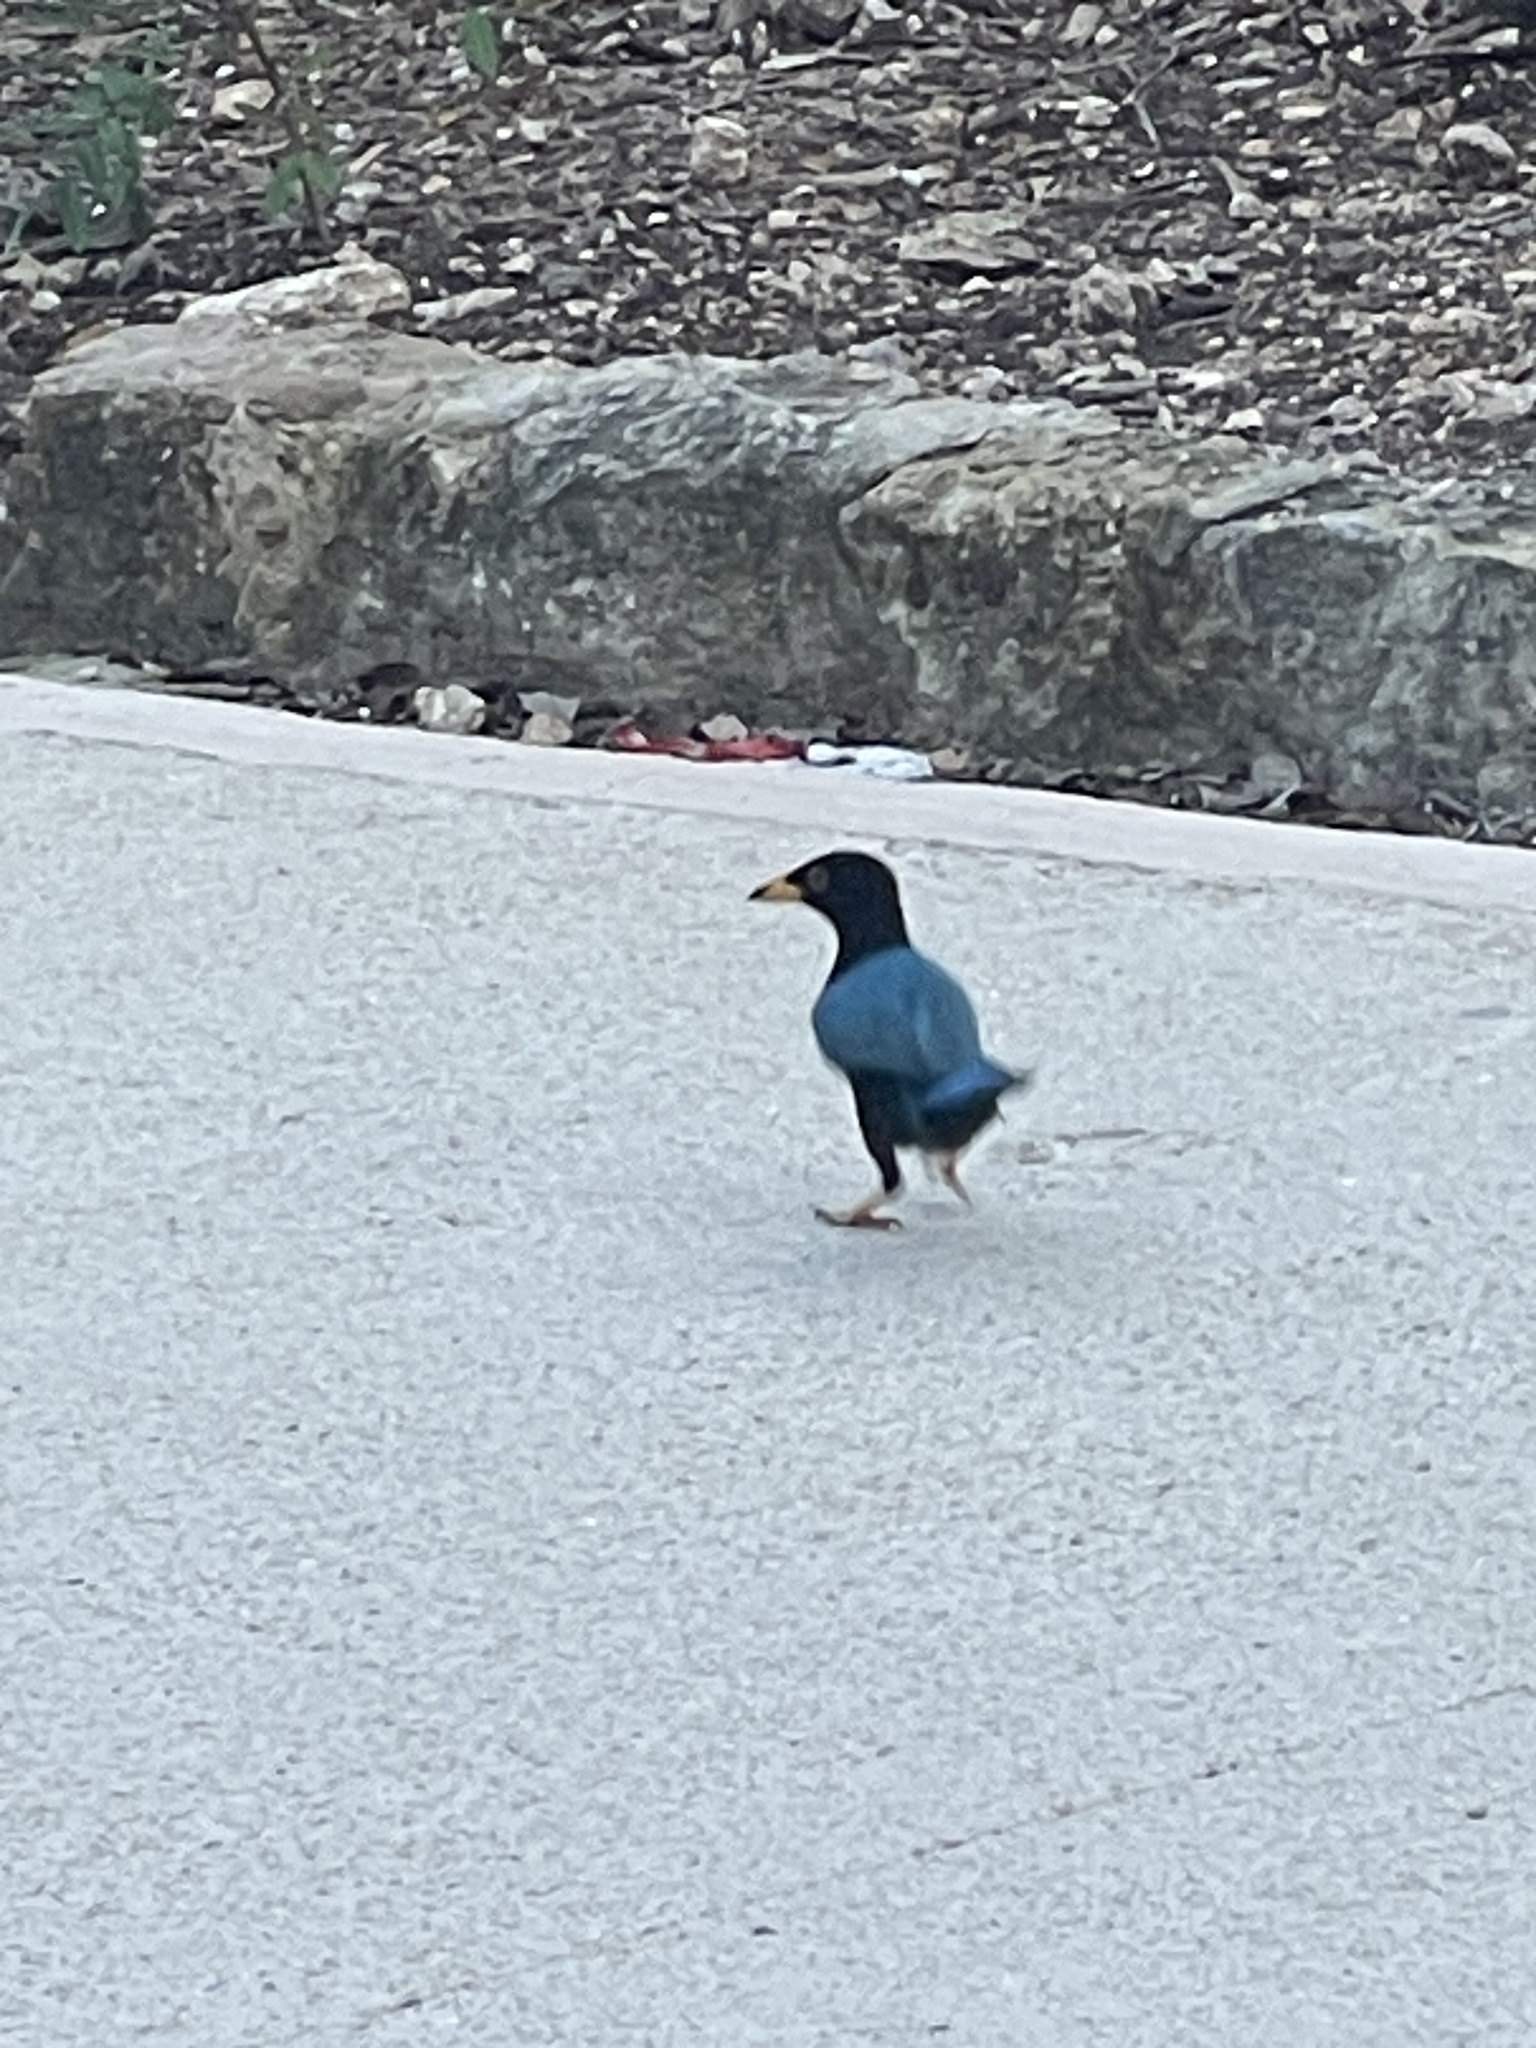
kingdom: Animalia
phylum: Chordata
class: Aves
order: Passeriformes
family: Corvidae
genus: Cyanocorax
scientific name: Cyanocorax yucatanicus
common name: Yucatan jay
